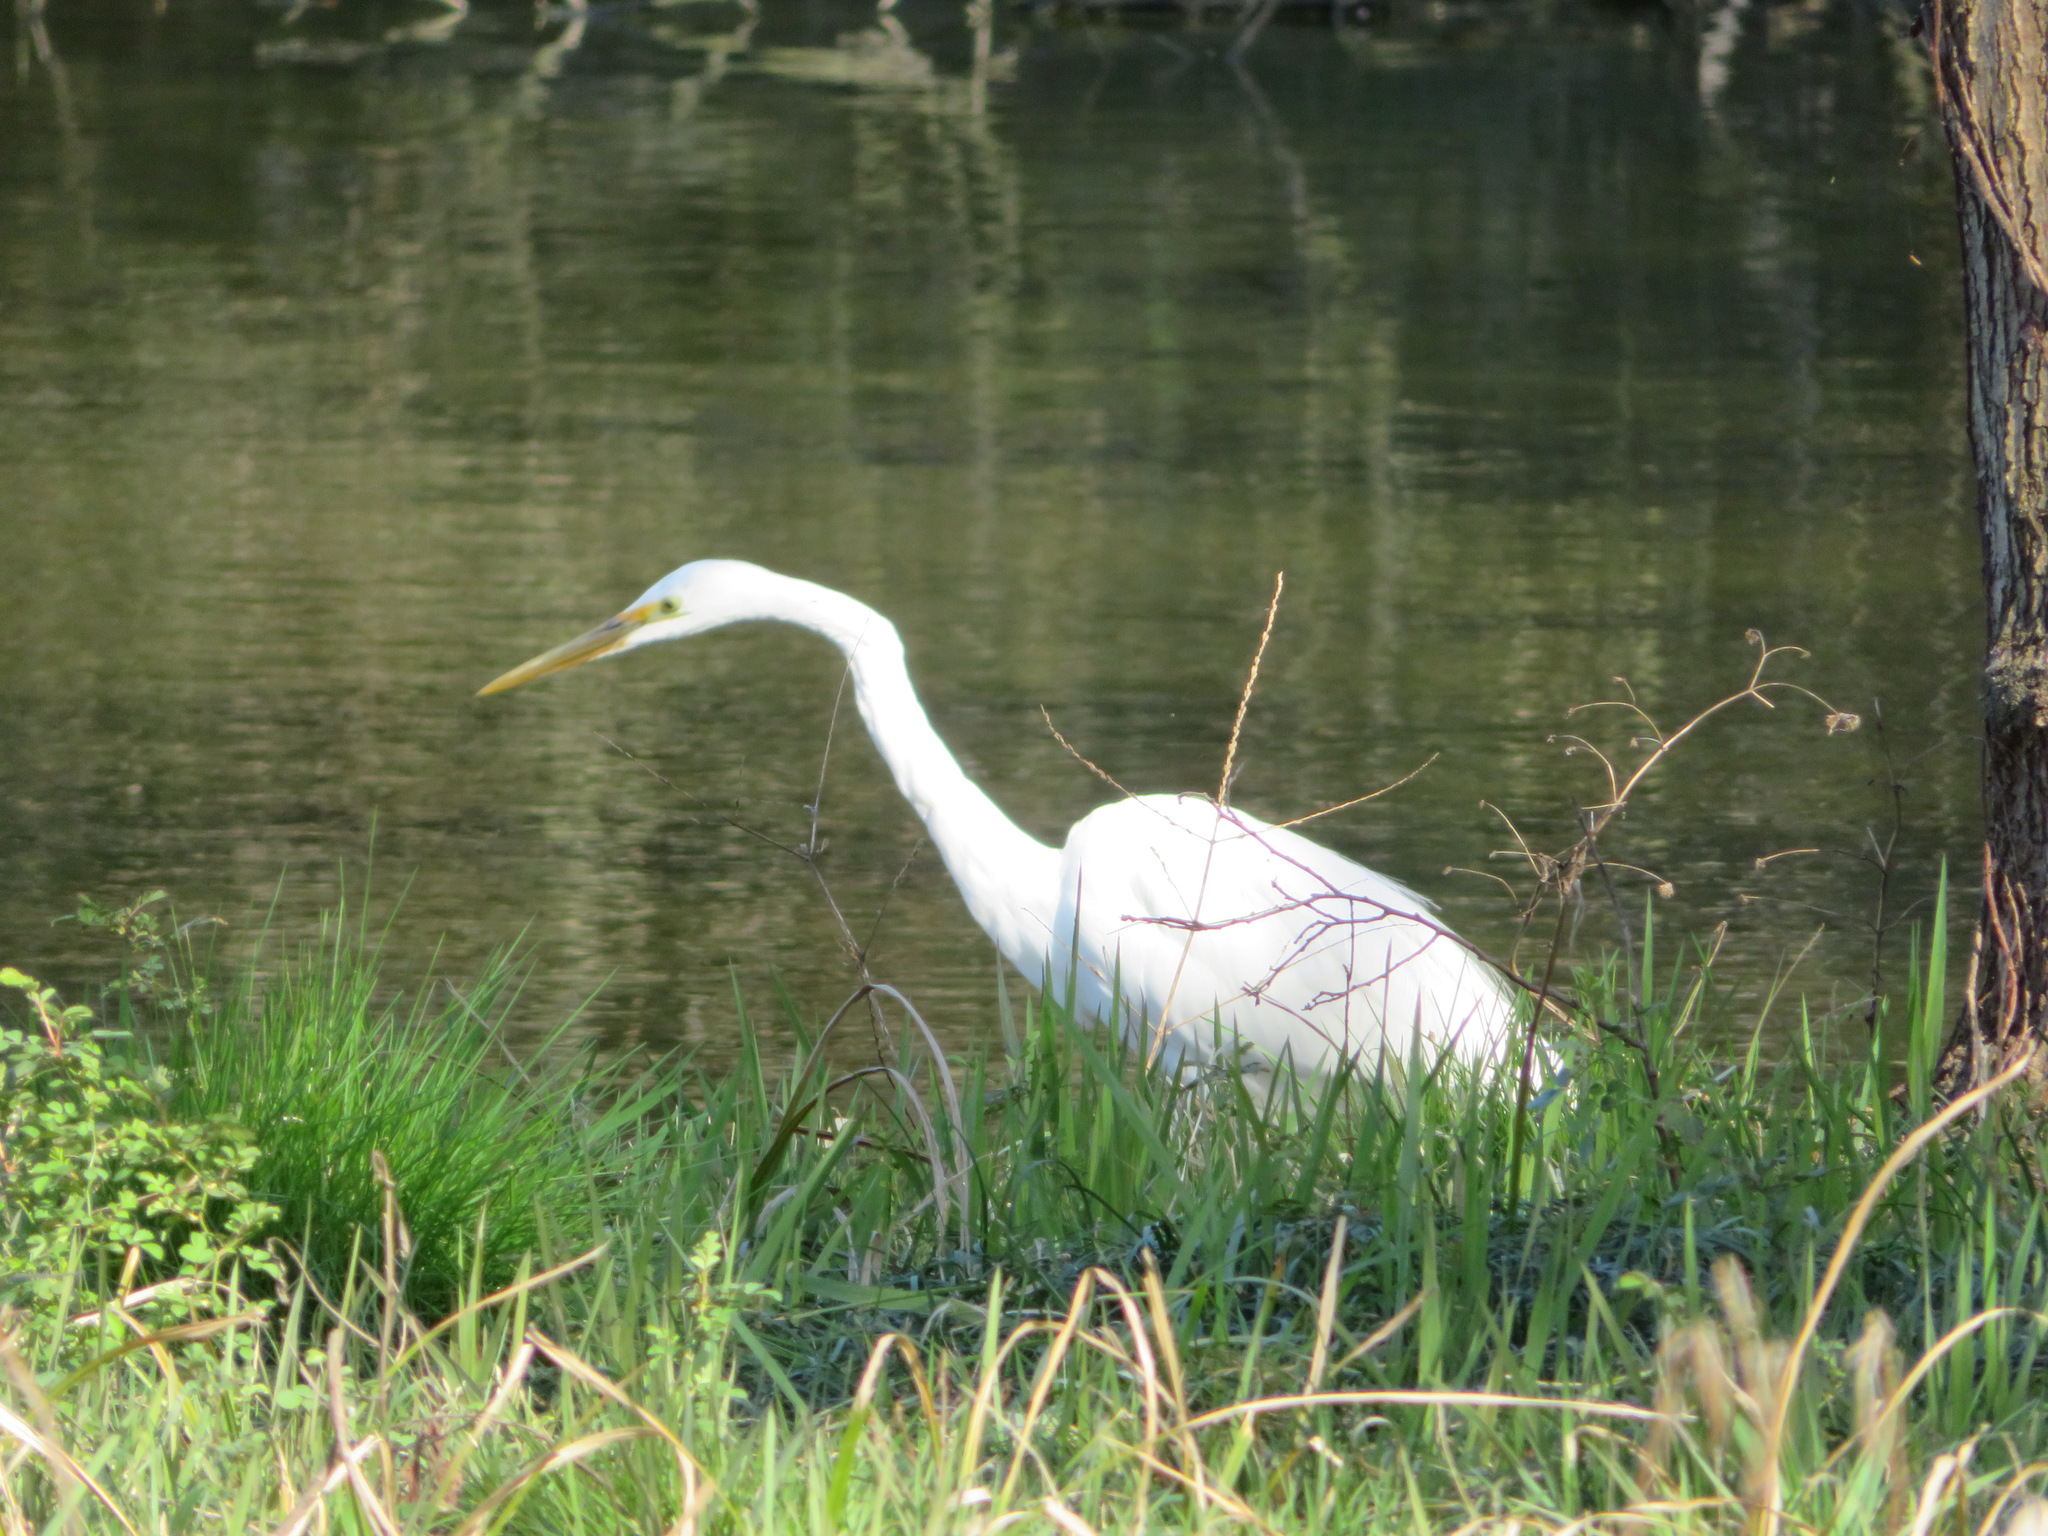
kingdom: Animalia
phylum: Chordata
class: Aves
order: Pelecaniformes
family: Ardeidae
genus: Ardea
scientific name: Ardea alba
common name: Great egret
